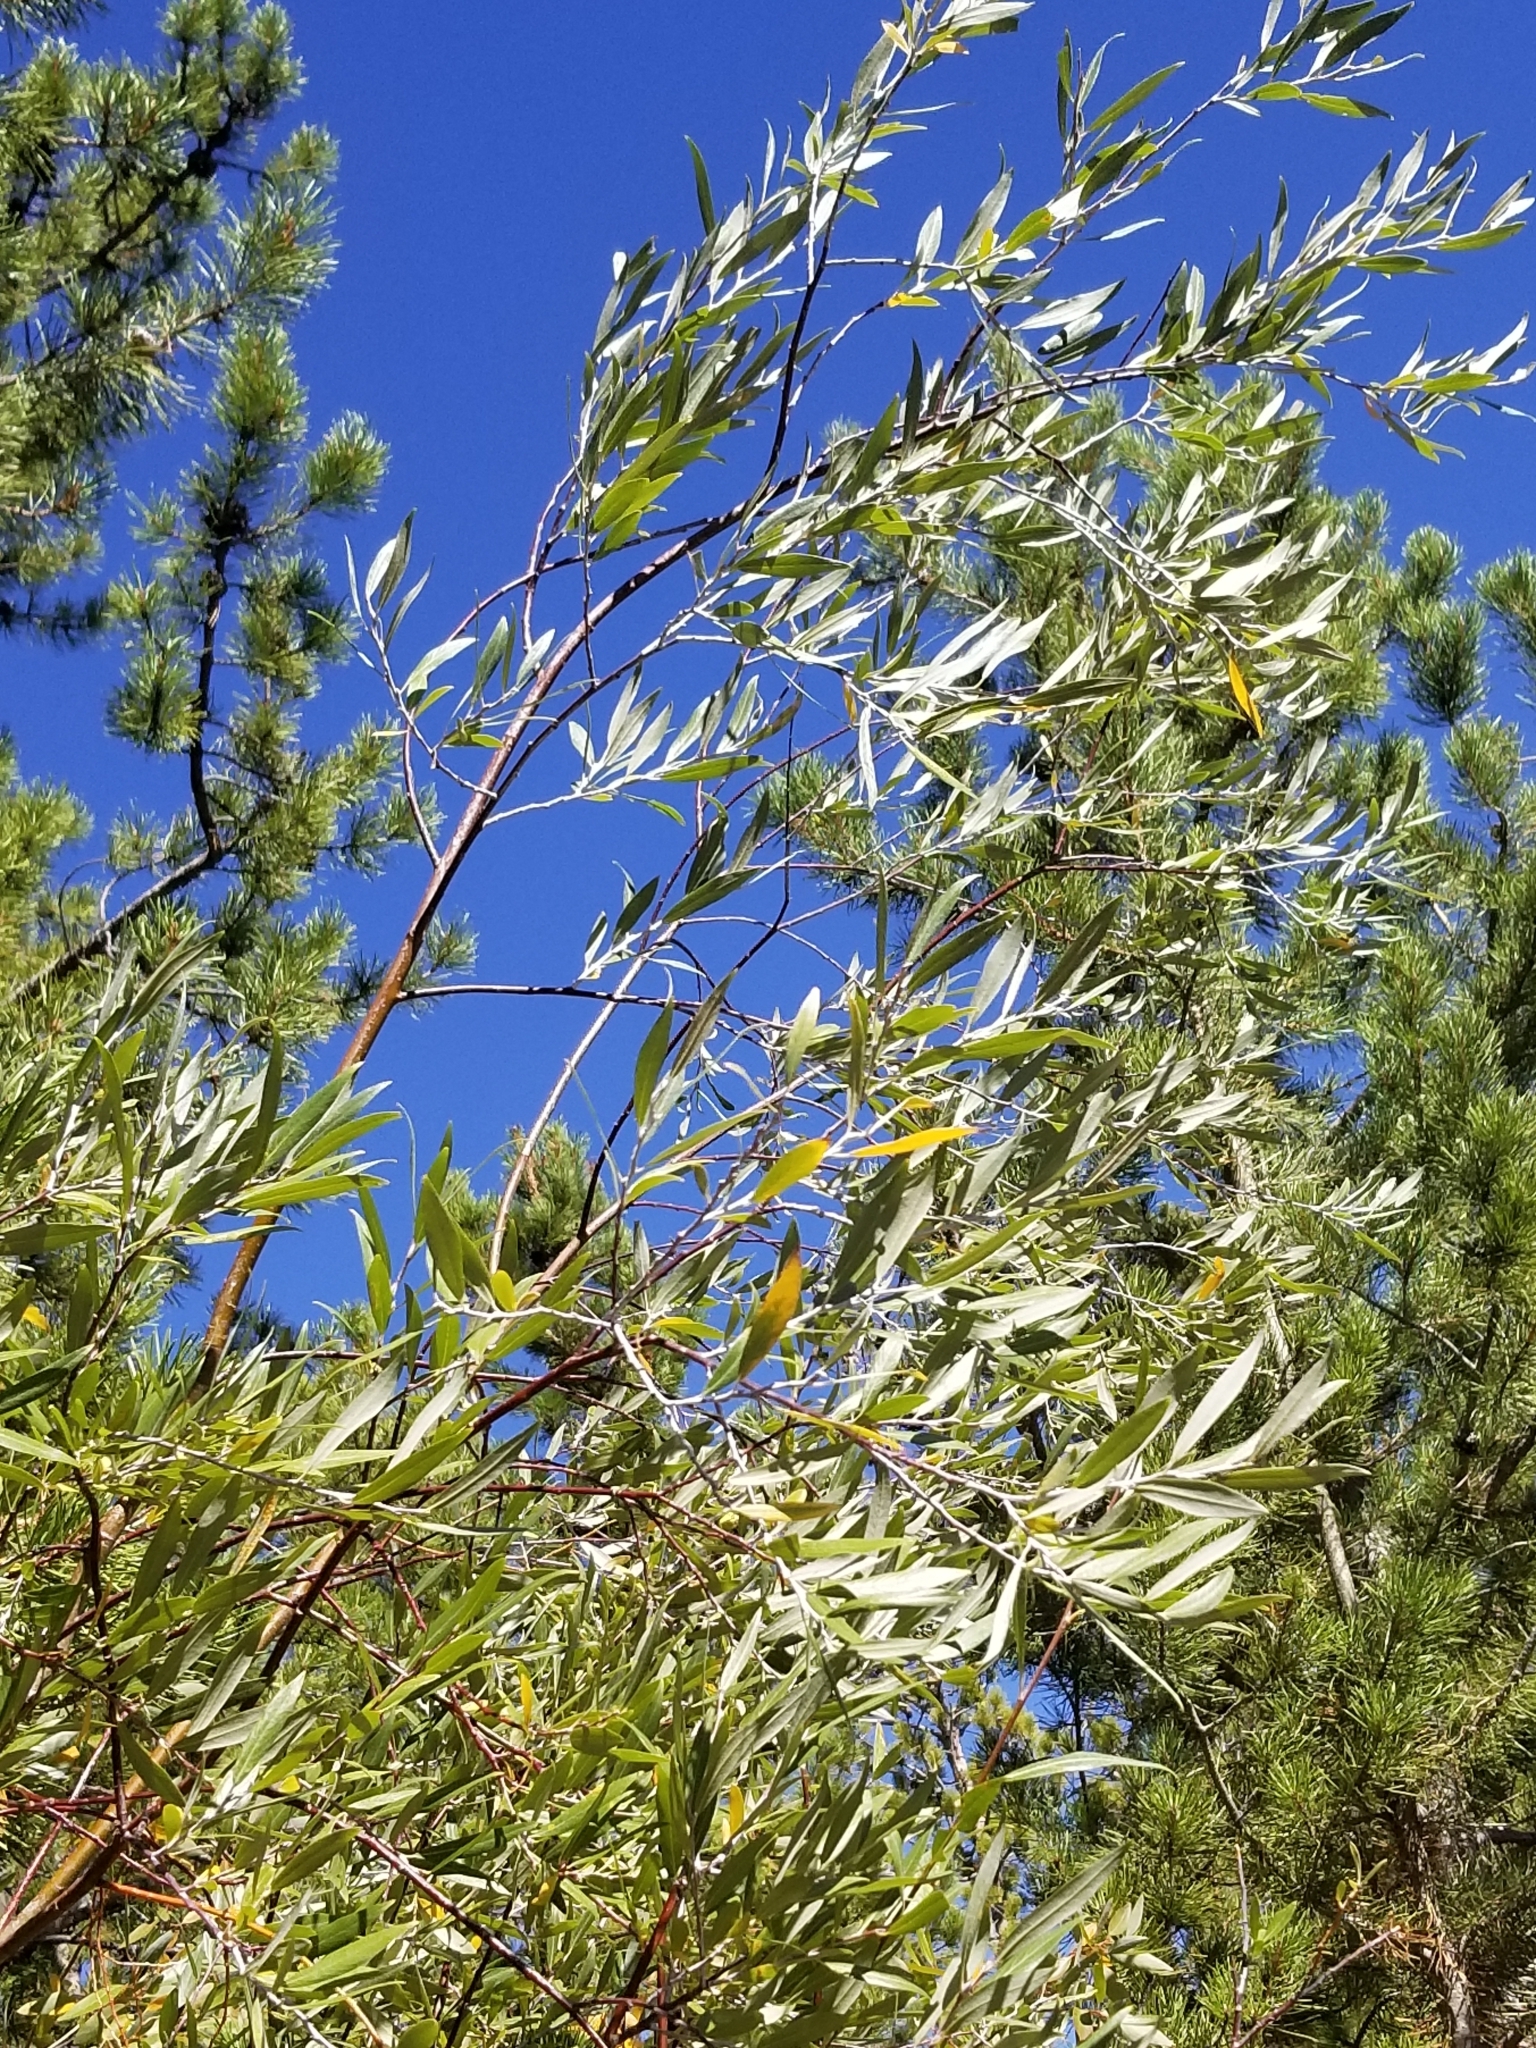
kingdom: Plantae
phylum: Tracheophyta
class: Magnoliopsida
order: Malpighiales
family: Salicaceae
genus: Salix
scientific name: Salix exigua
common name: Coyote willow
